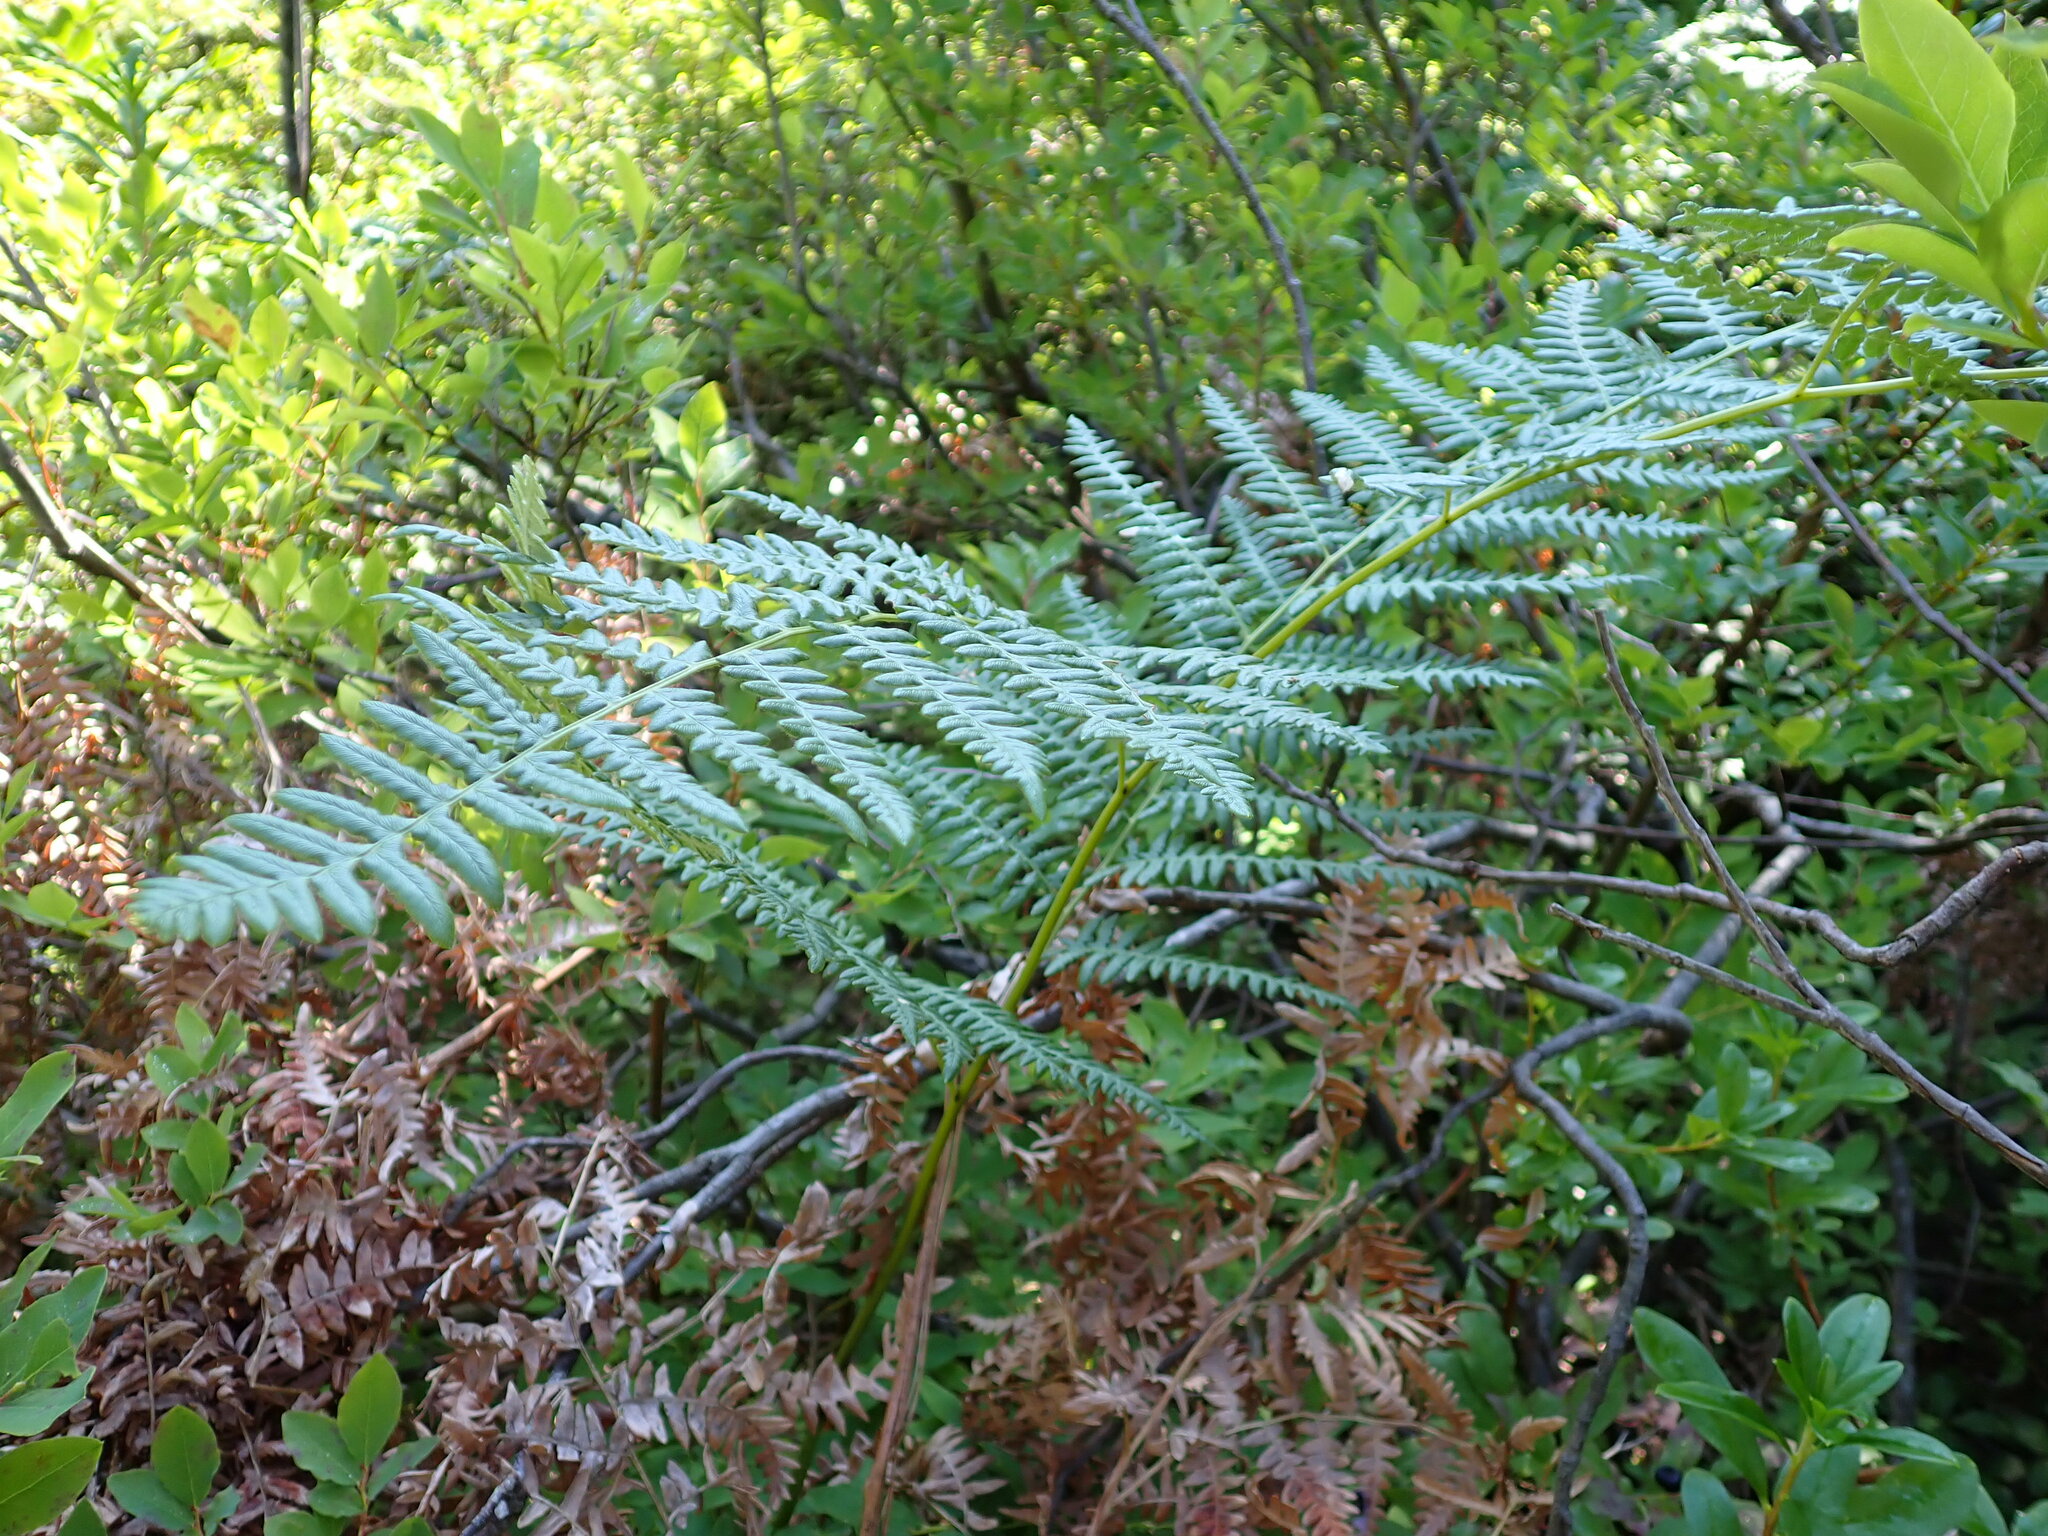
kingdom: Plantae
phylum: Tracheophyta
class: Polypodiopsida
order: Polypodiales
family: Dennstaedtiaceae
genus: Pteridium
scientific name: Pteridium aquilinum
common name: Bracken
